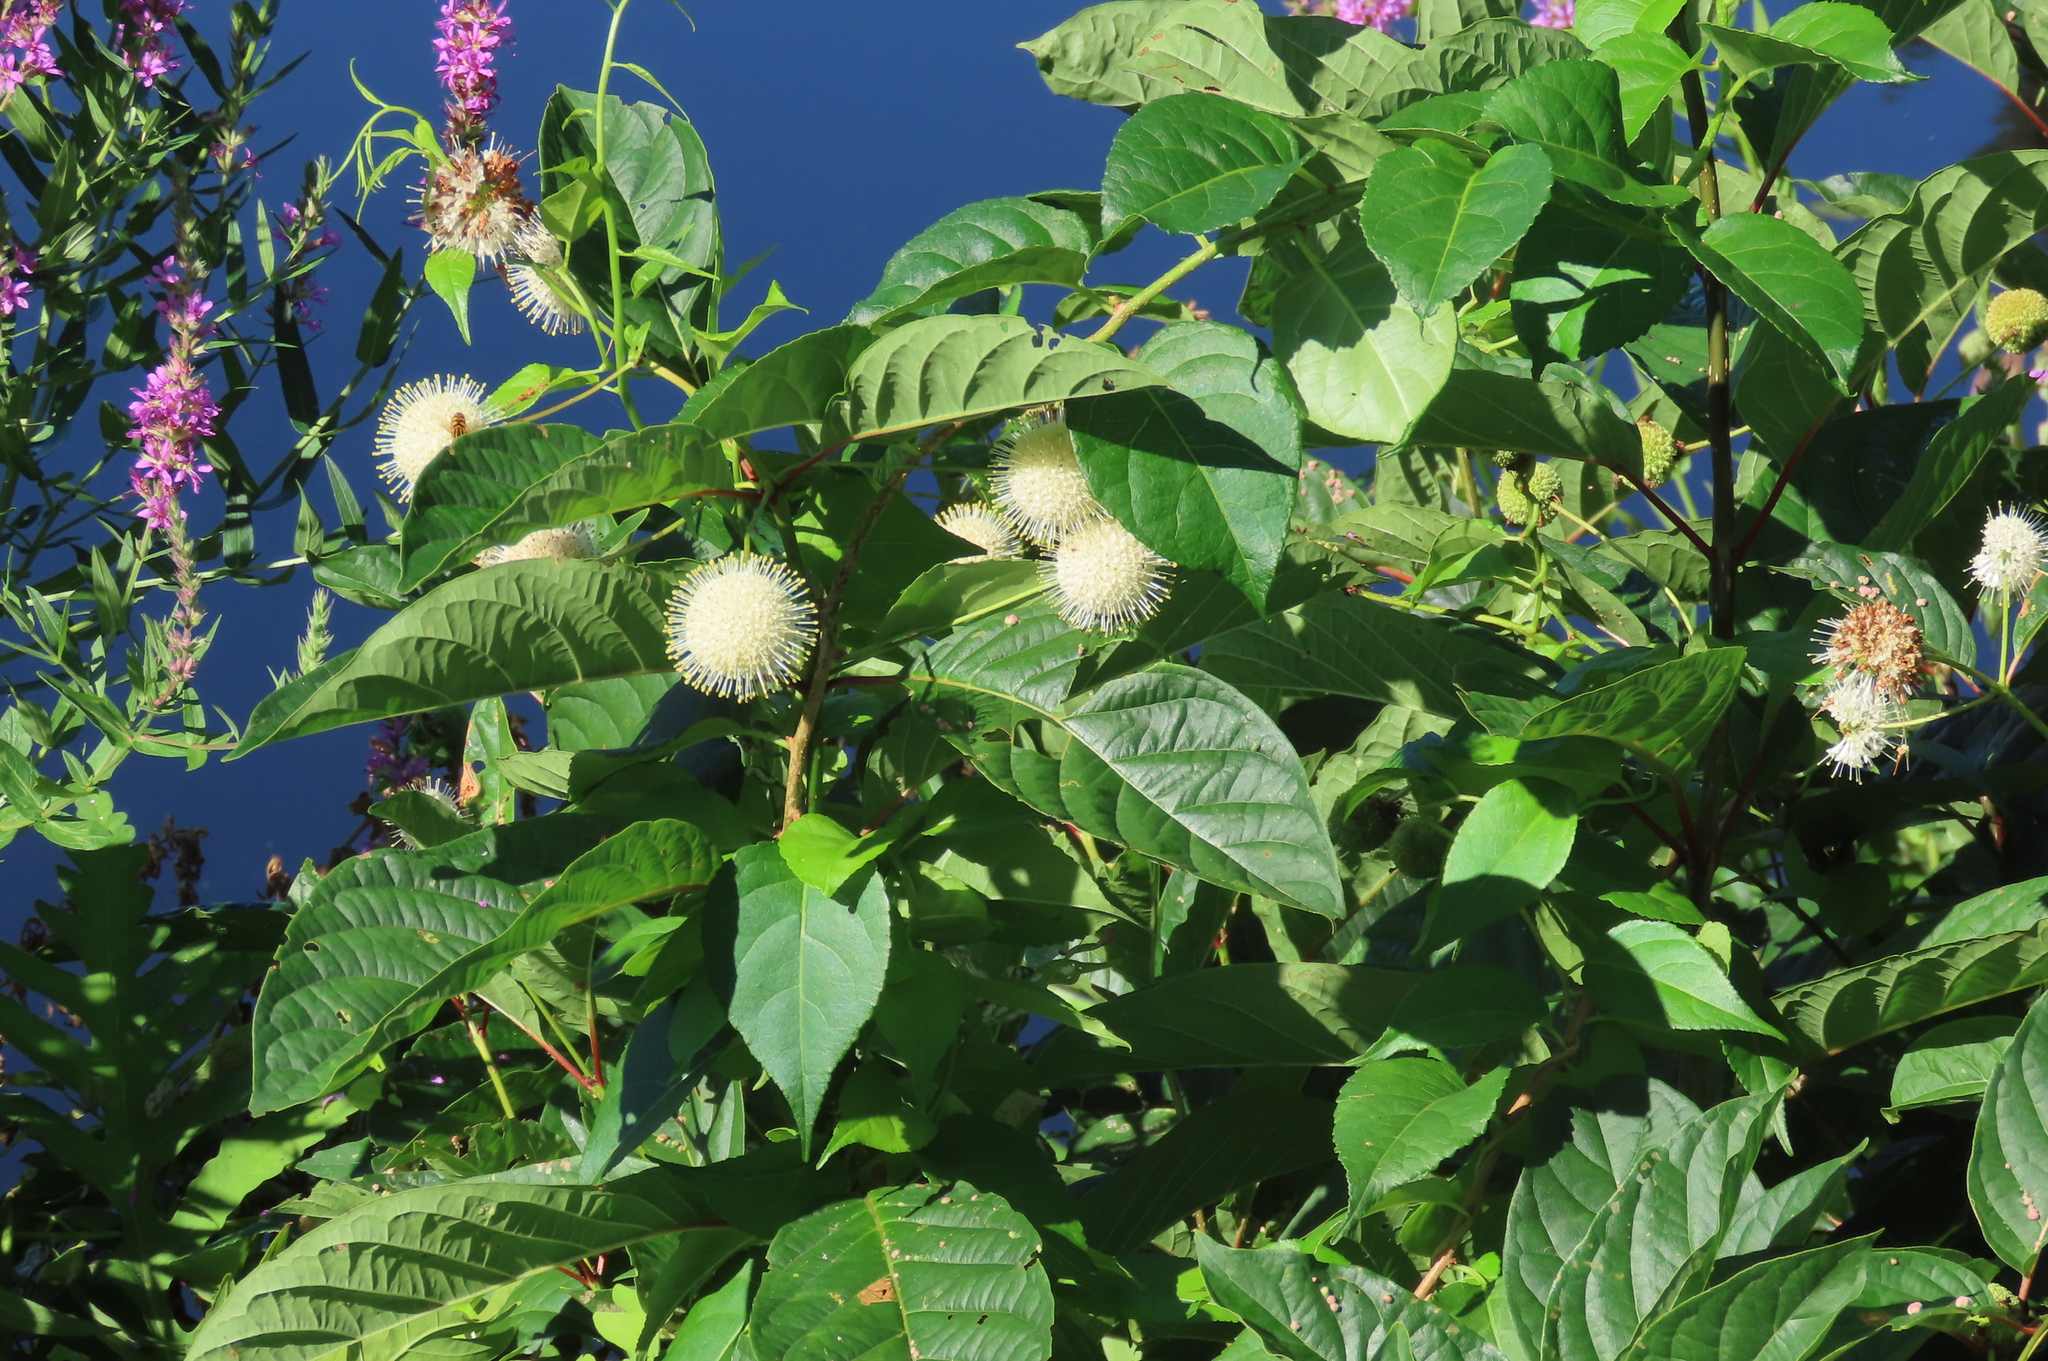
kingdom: Plantae
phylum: Tracheophyta
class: Magnoliopsida
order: Gentianales
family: Rubiaceae
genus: Cephalanthus
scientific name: Cephalanthus occidentalis
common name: Button-willow
